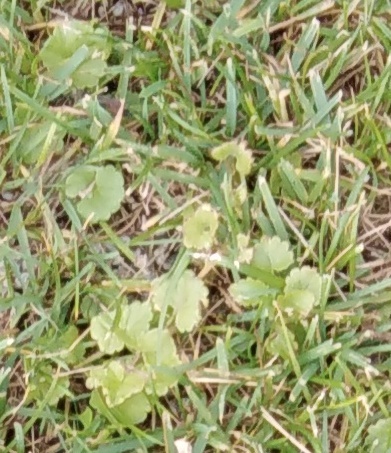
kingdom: Plantae
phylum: Tracheophyta
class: Magnoliopsida
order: Lamiales
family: Lamiaceae
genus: Glechoma
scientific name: Glechoma hederacea
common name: Ground ivy
